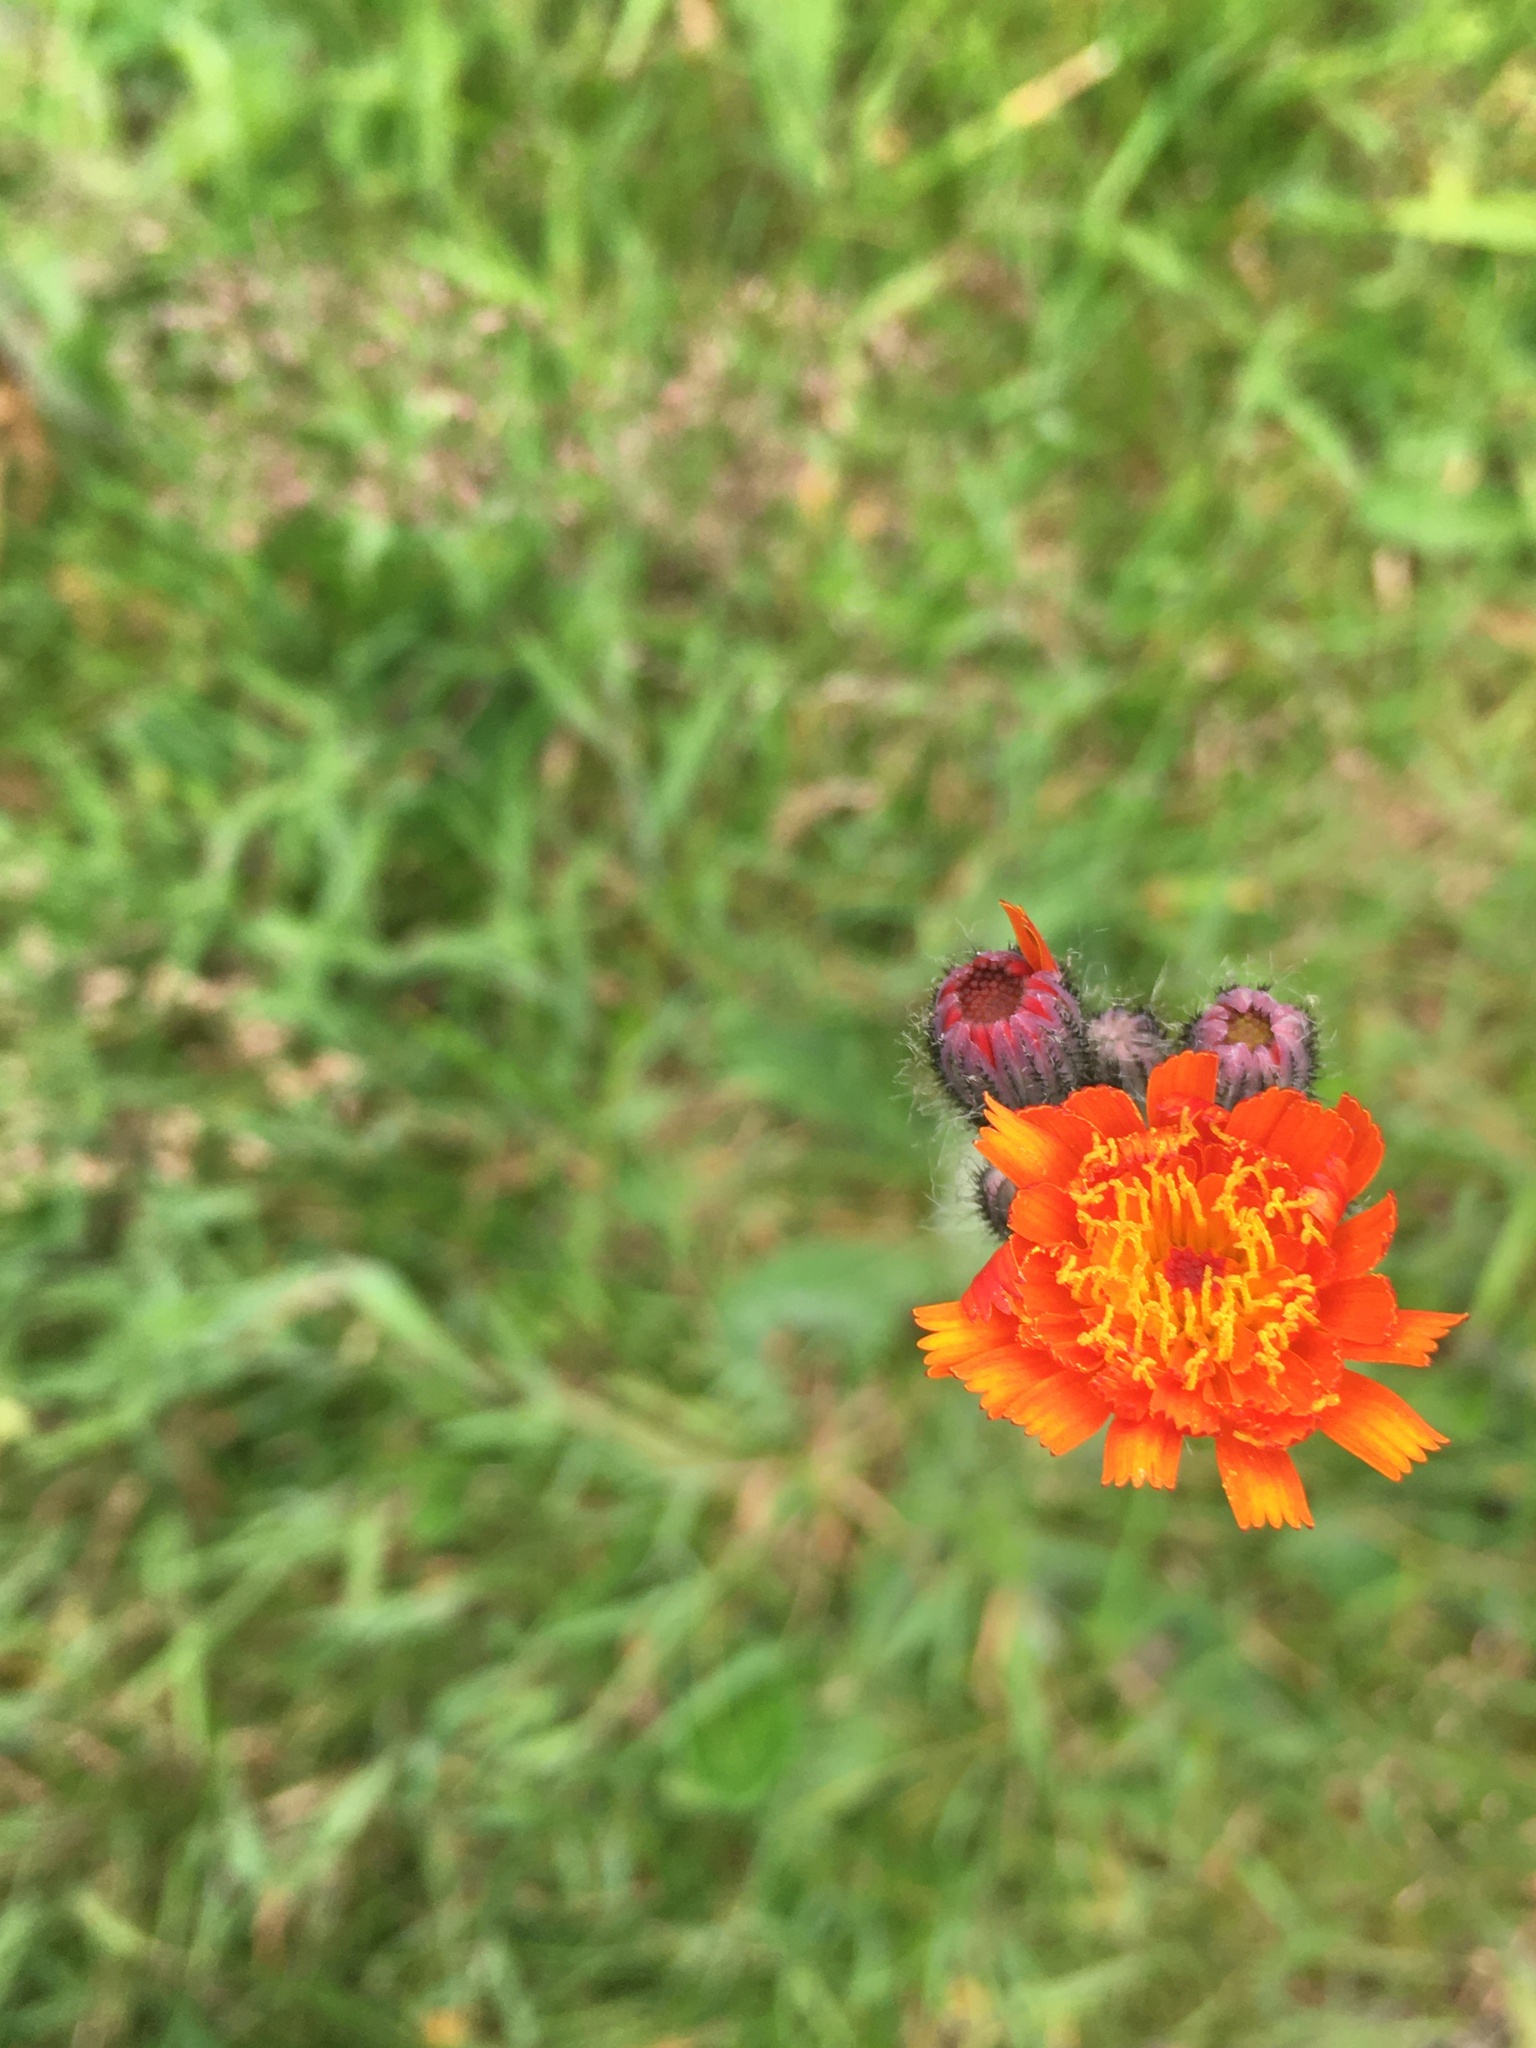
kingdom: Plantae
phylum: Tracheophyta
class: Magnoliopsida
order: Asterales
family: Asteraceae
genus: Pilosella
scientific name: Pilosella aurantiaca
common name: Fox-and-cubs
